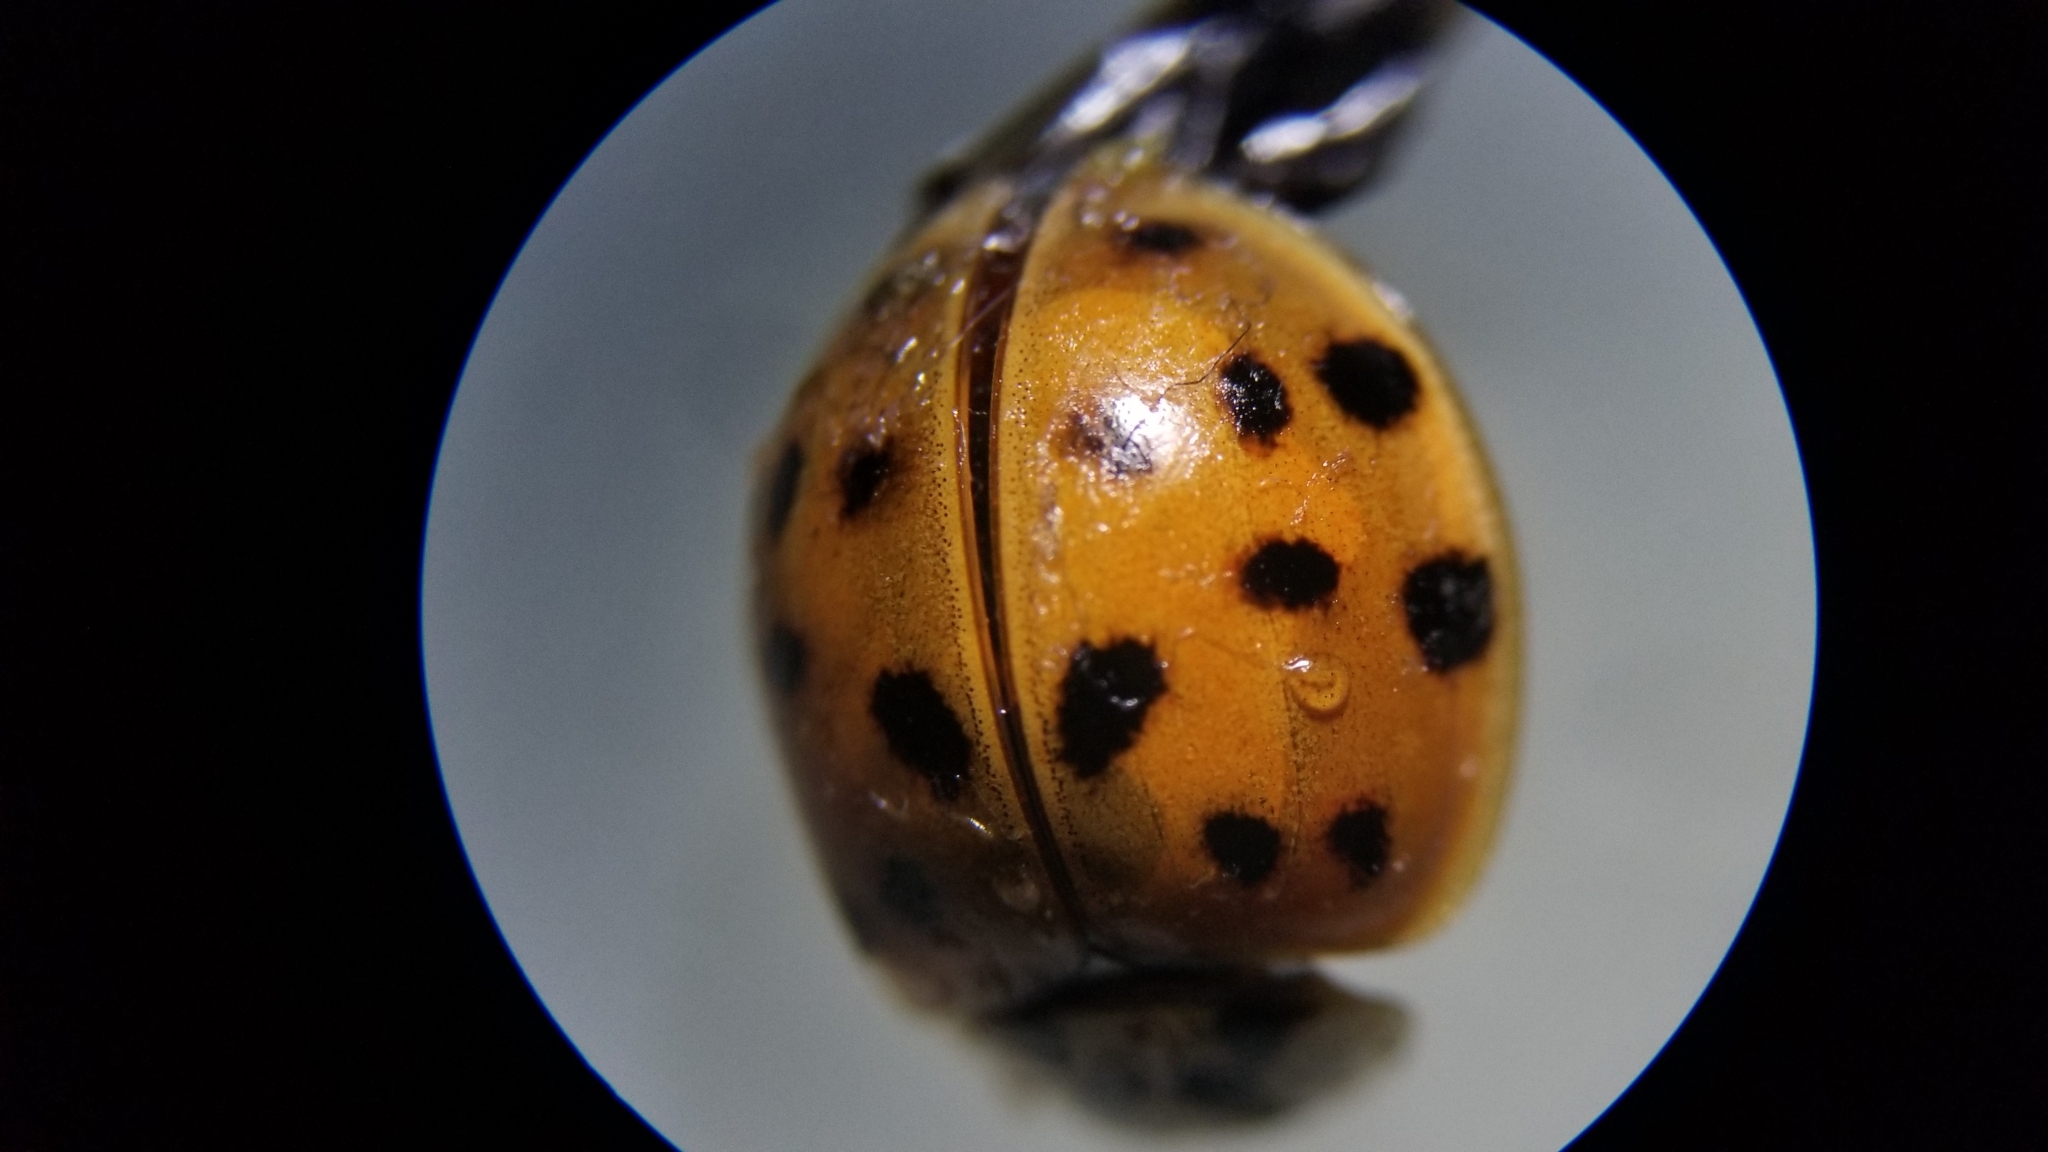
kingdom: Animalia
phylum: Arthropoda
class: Insecta
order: Coleoptera
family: Coccinellidae
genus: Harmonia
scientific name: Harmonia axyridis
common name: Harlequin ladybird
